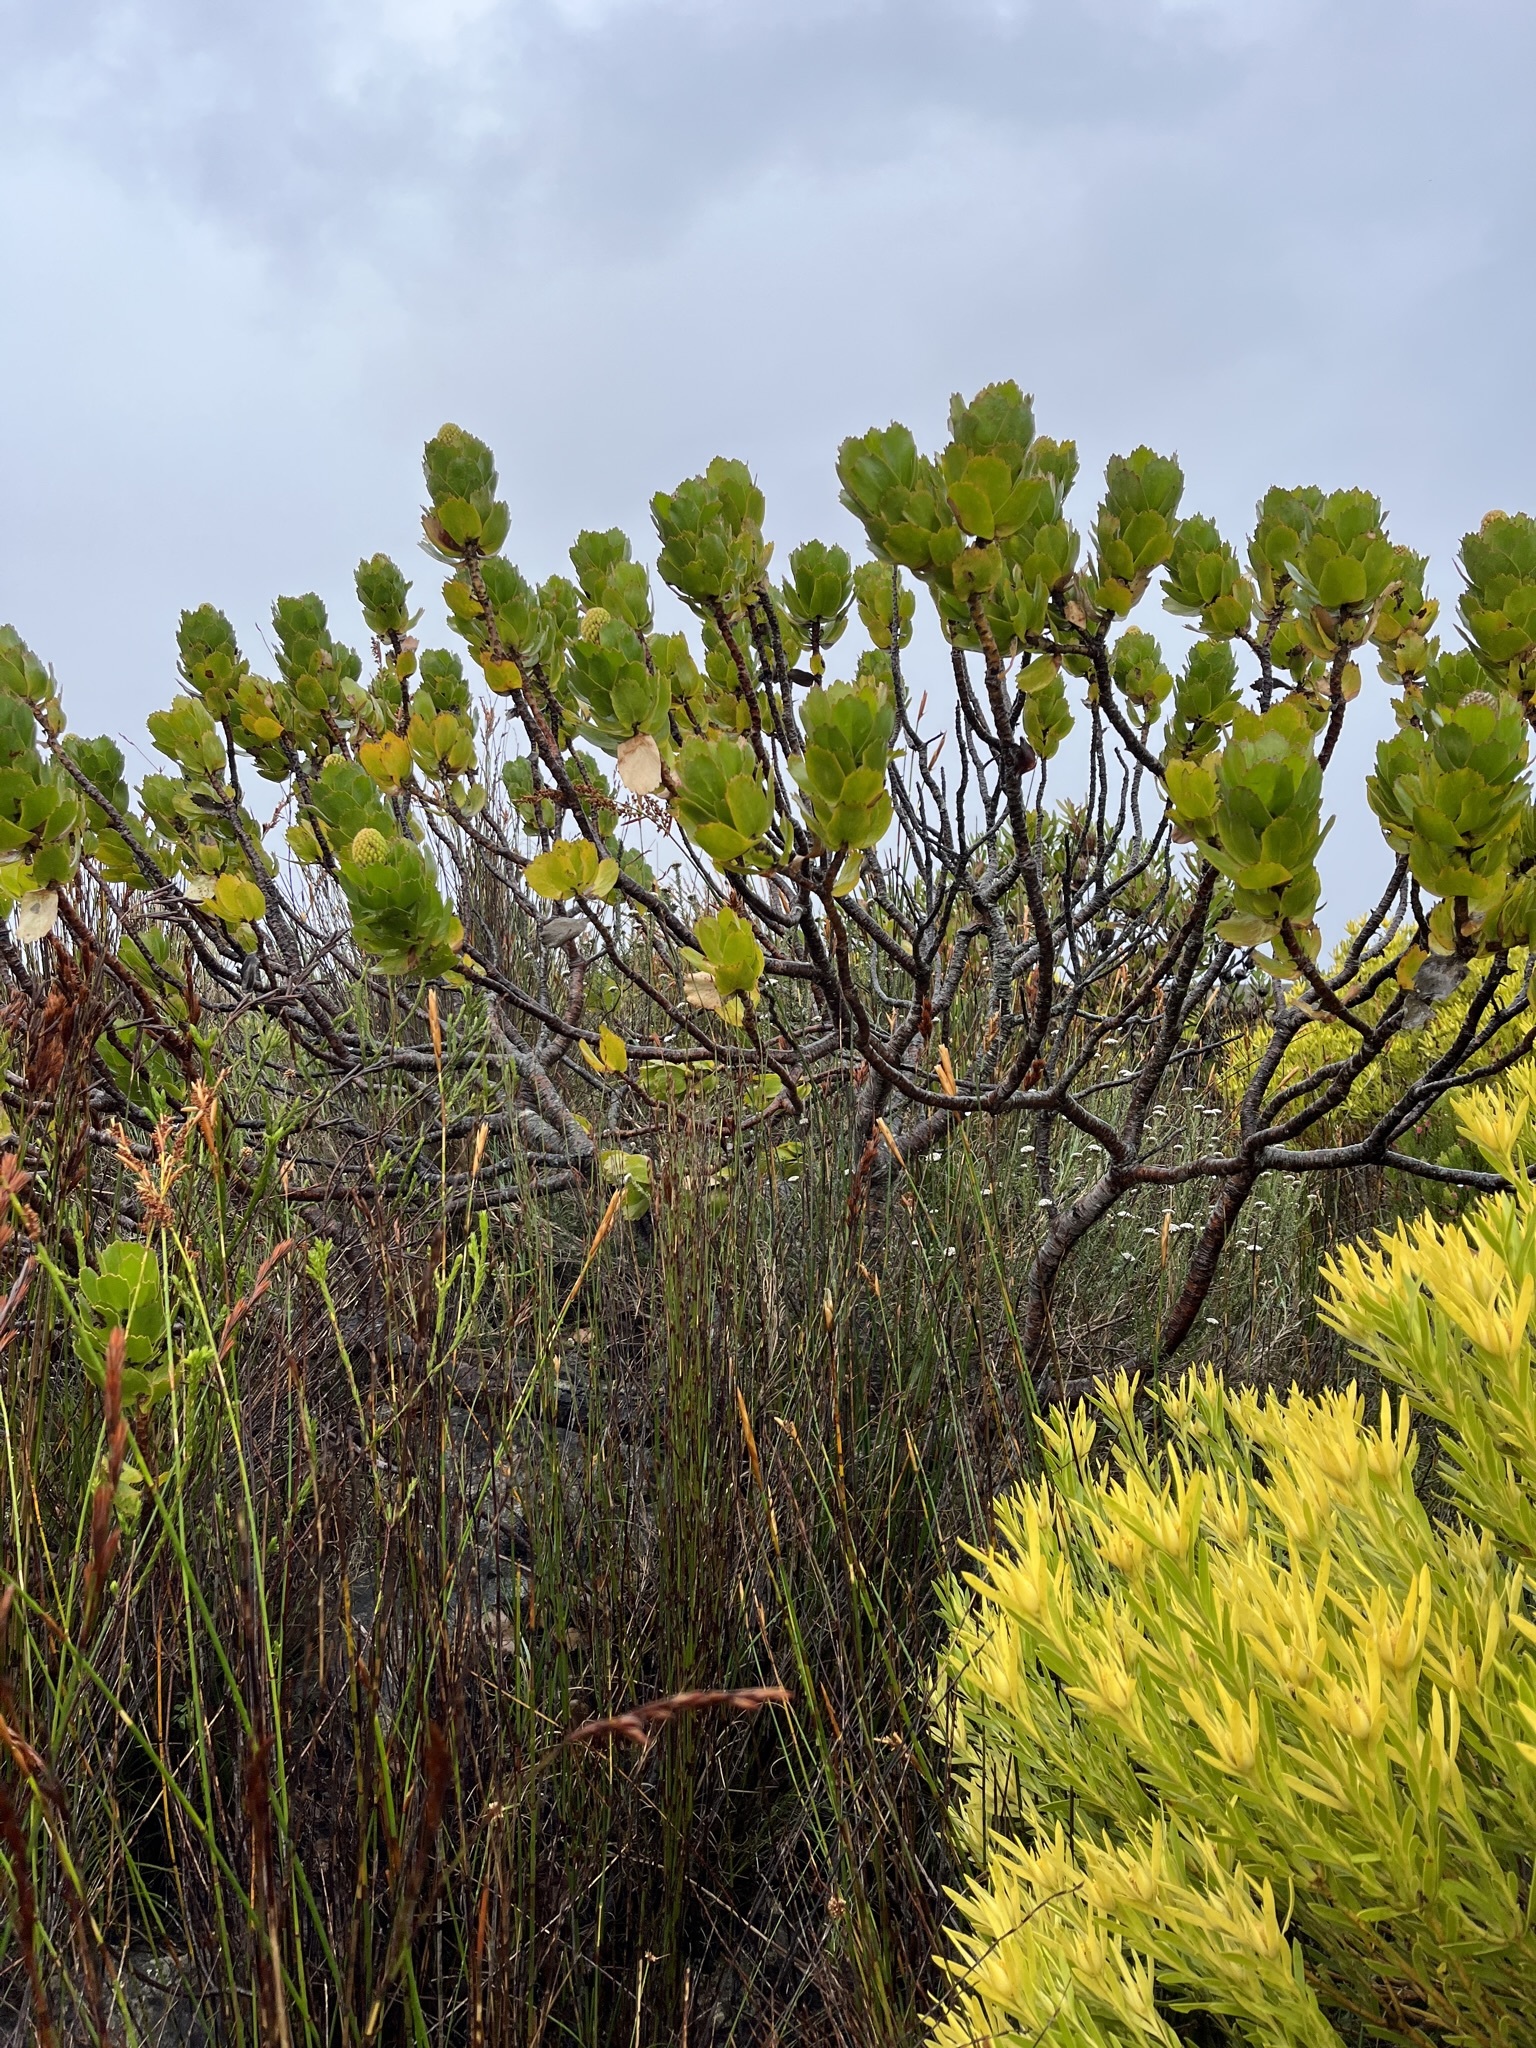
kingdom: Plantae
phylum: Tracheophyta
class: Magnoliopsida
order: Proteales
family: Proteaceae
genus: Leucospermum
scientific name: Leucospermum patersonii
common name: False tree pincushion
